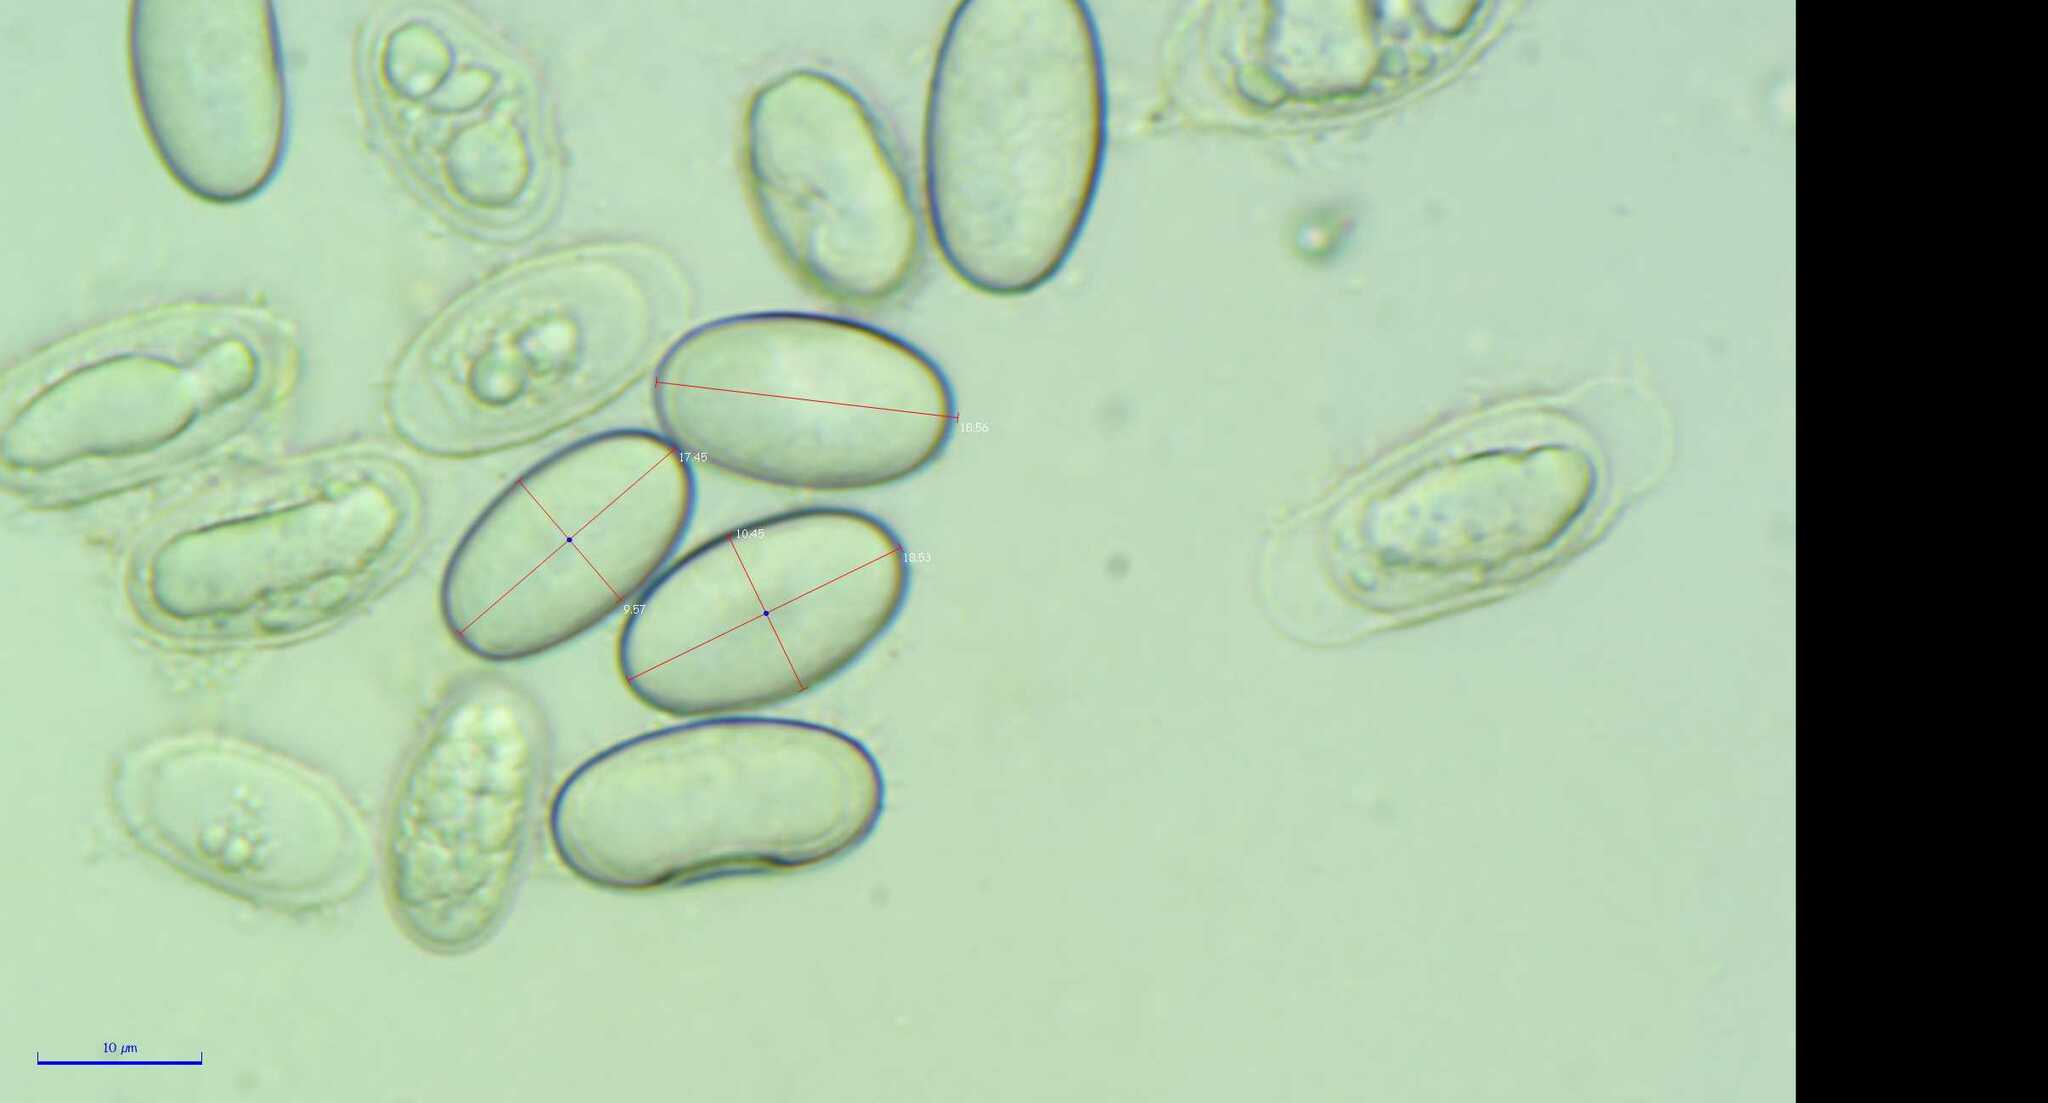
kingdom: Fungi
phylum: Ascomycota
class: Pezizomycetes
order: Pezizales
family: Pyronemataceae
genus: Scutellinia
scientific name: Scutellinia setosa
